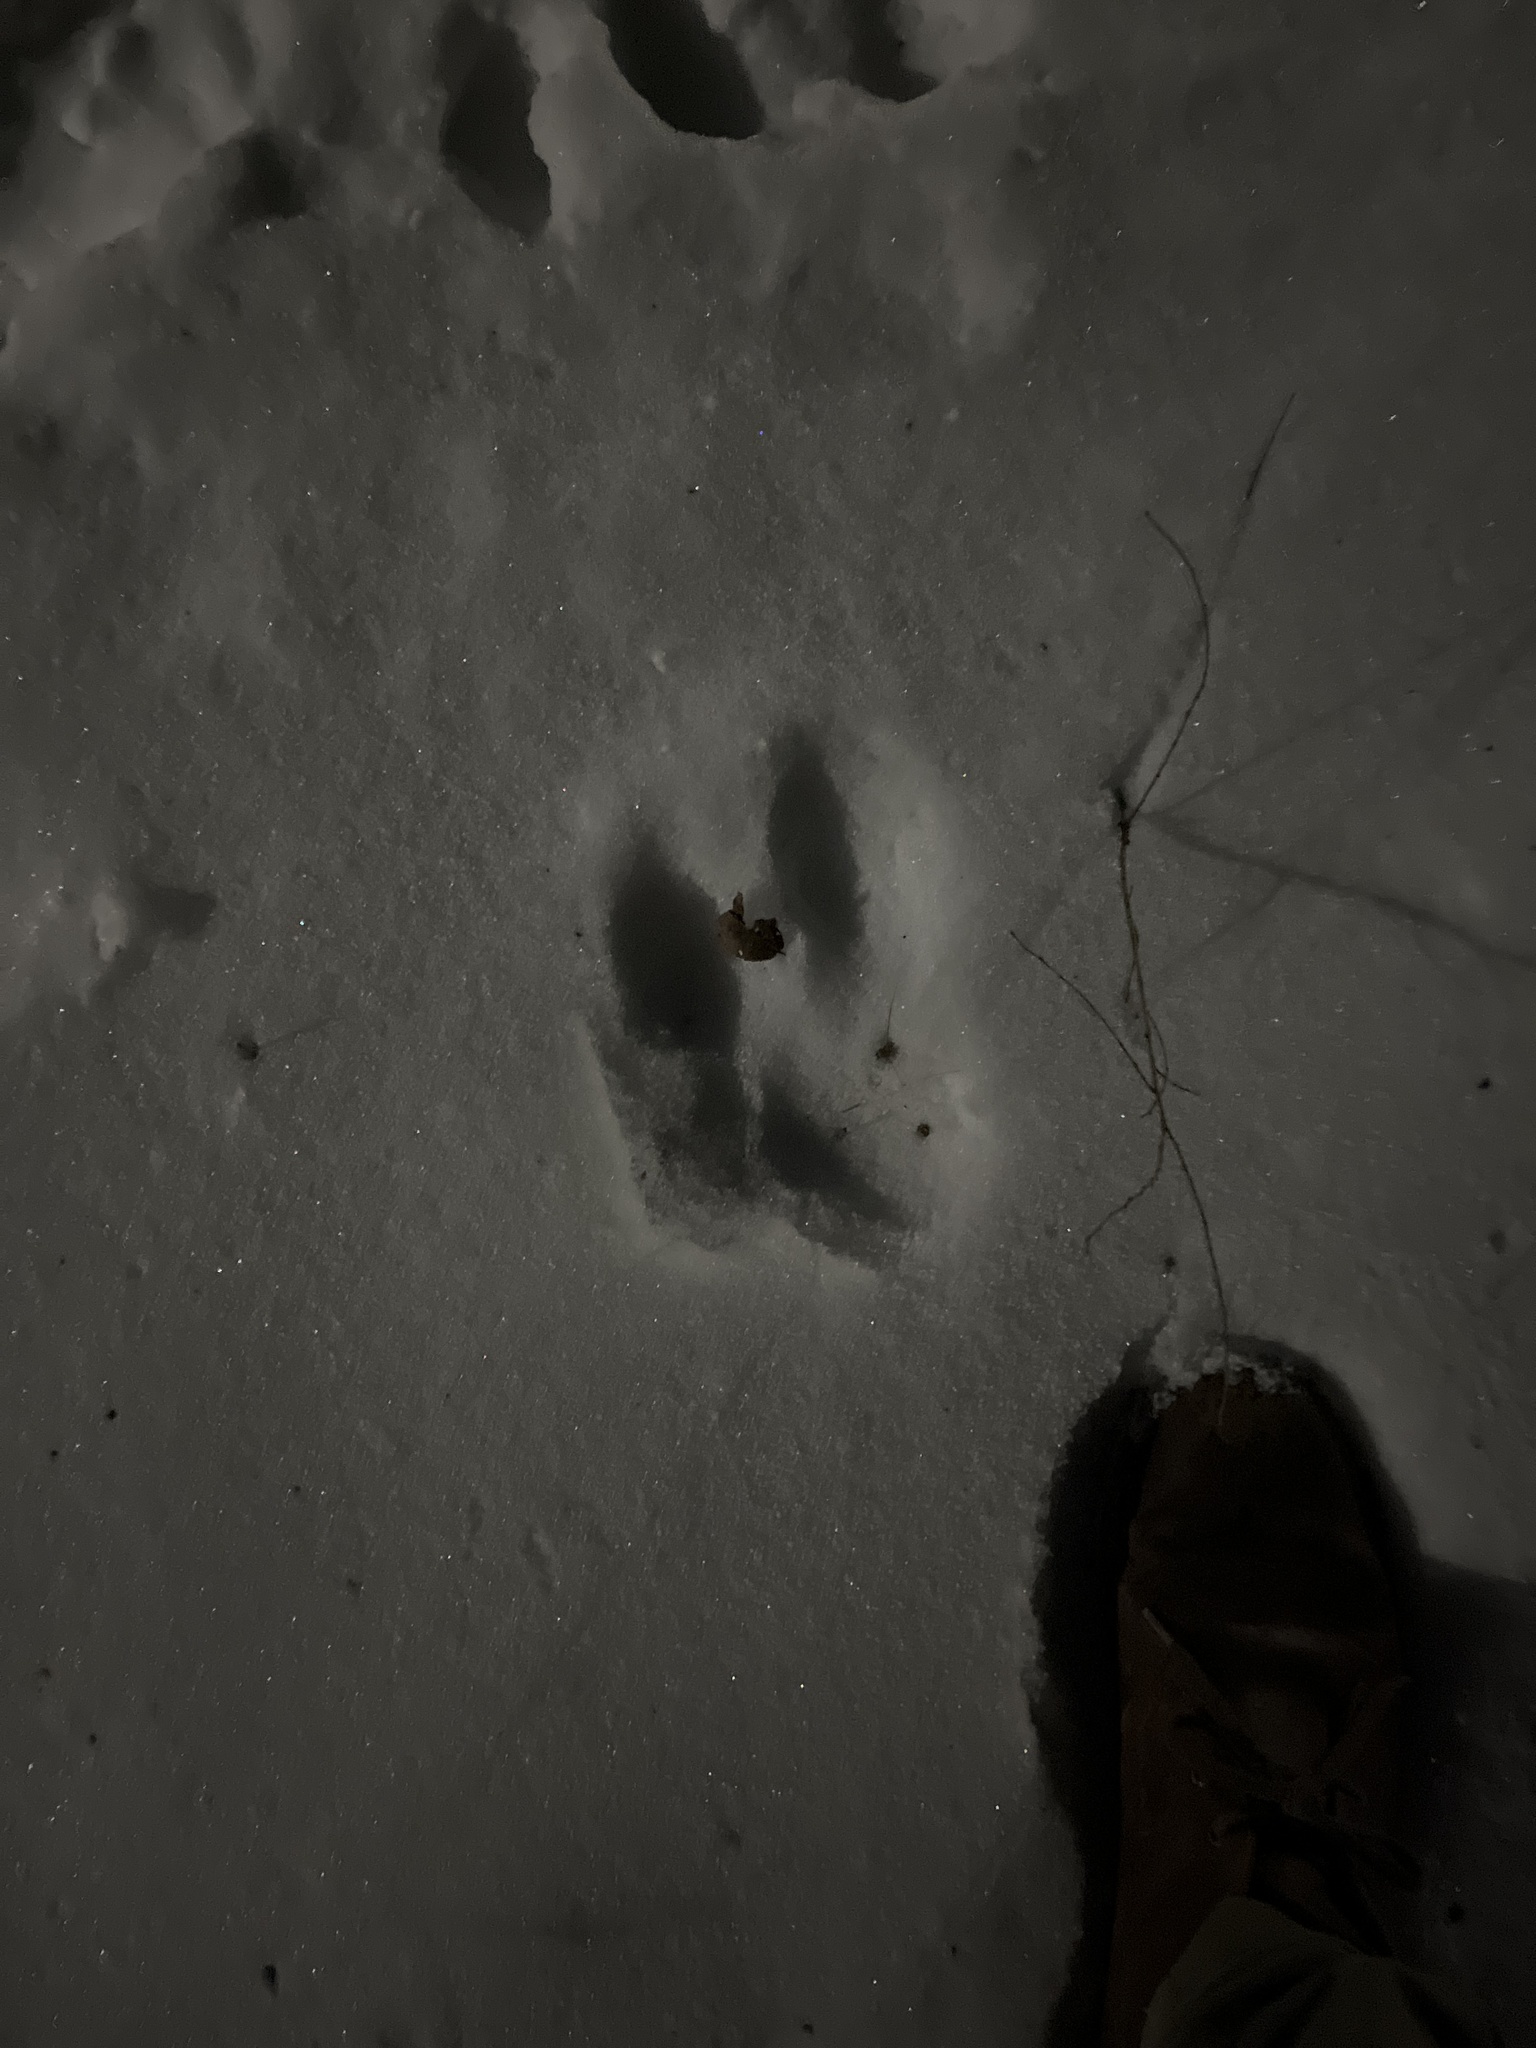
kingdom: Animalia
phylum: Chordata
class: Mammalia
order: Lagomorpha
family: Leporidae
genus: Sylvilagus
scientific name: Sylvilagus floridanus
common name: Eastern cottontail
